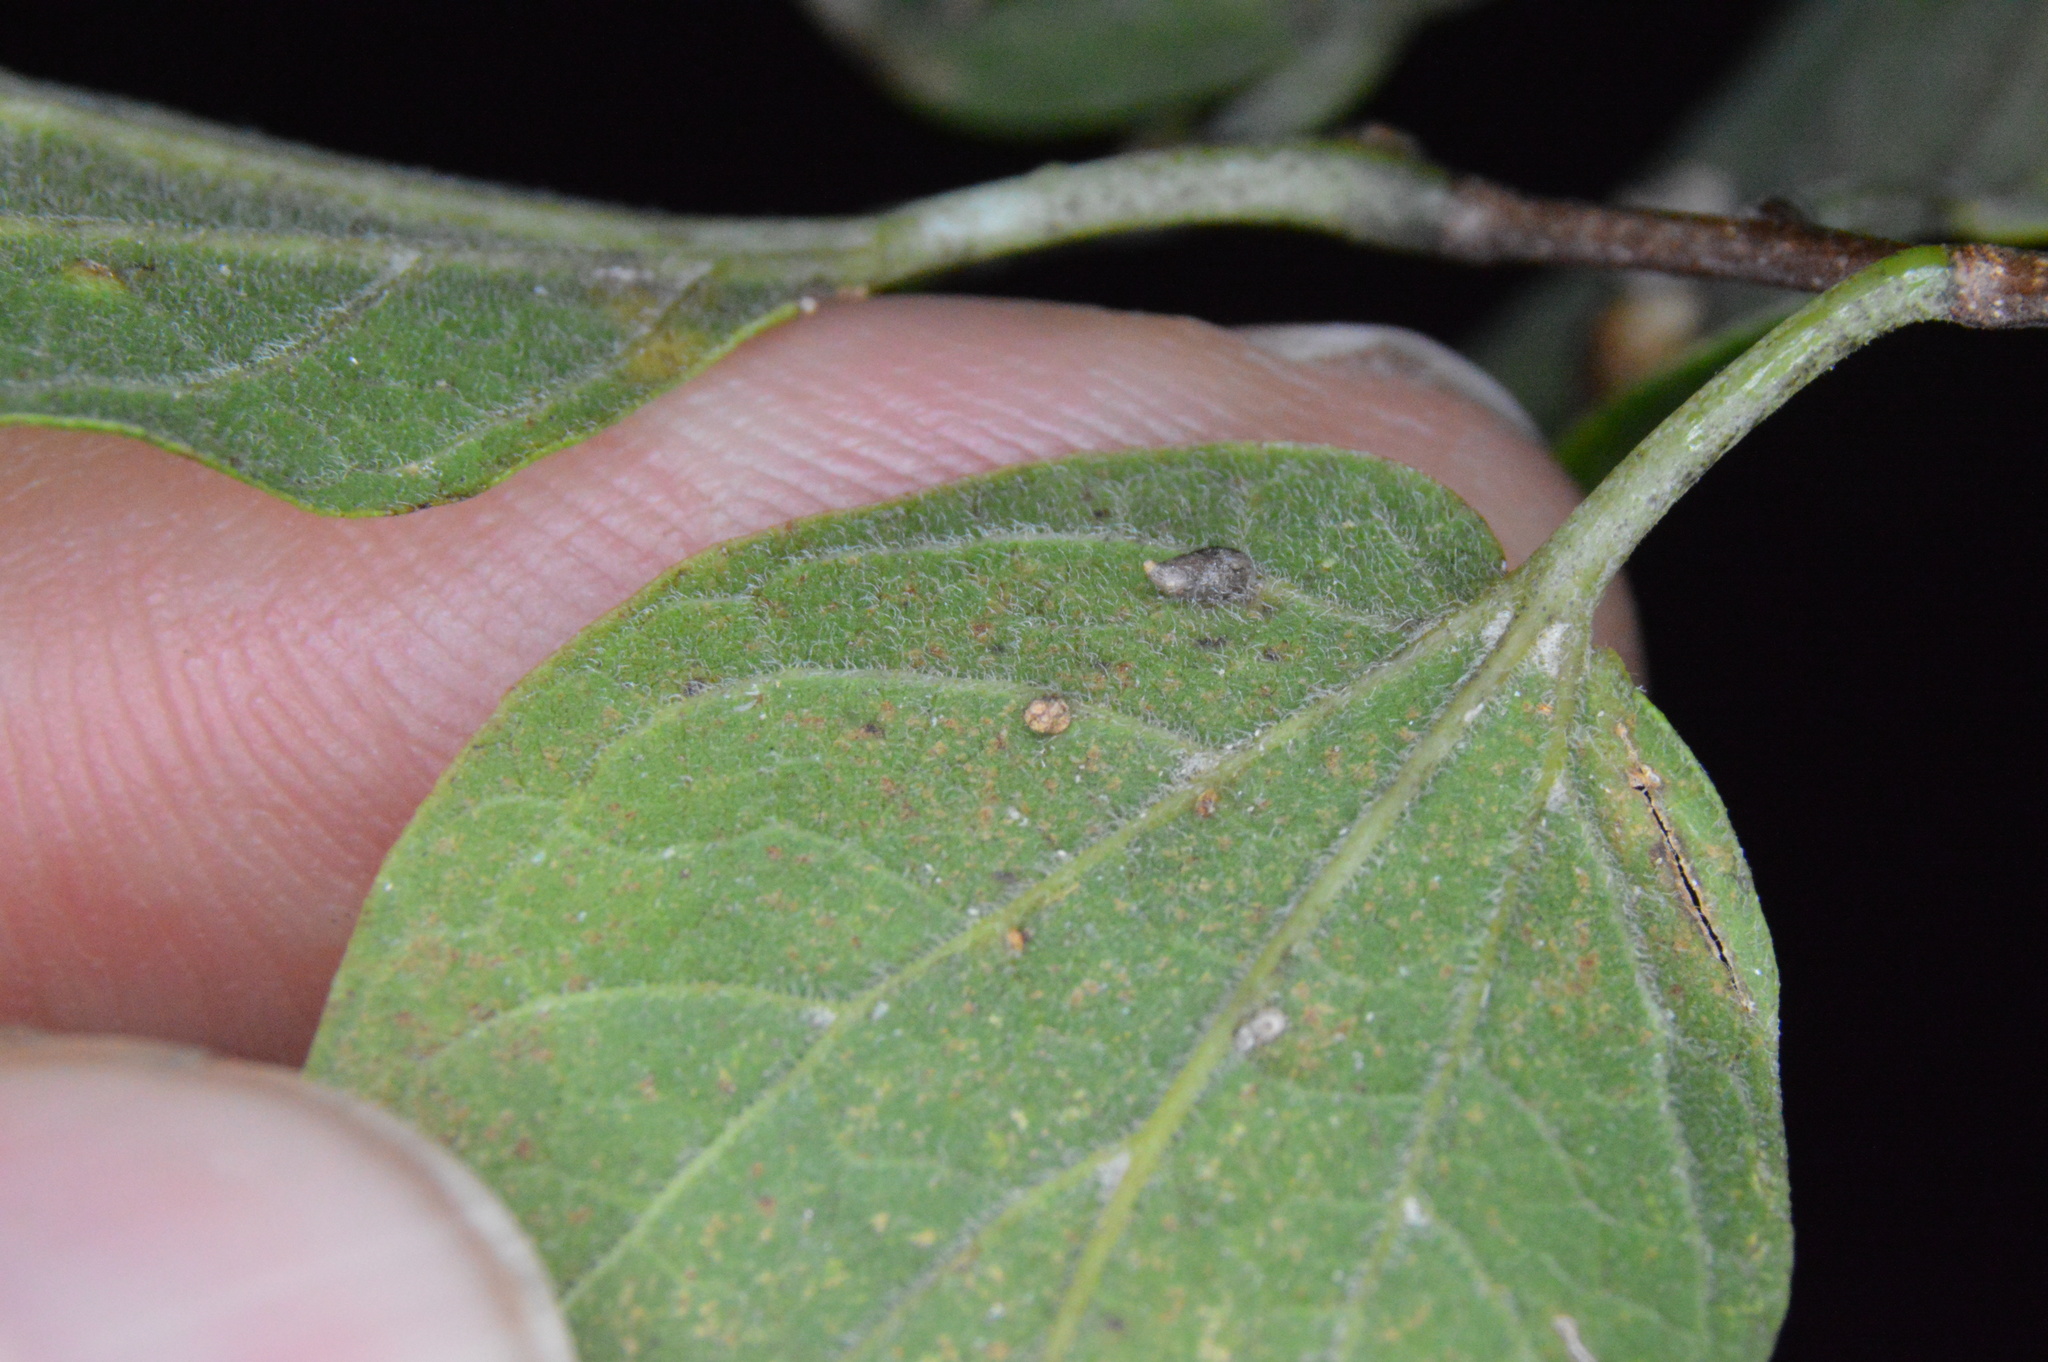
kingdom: Animalia
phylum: Arthropoda
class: Insecta
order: Diptera
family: Cecidomyiidae
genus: Celticecis
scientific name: Celticecis supina
